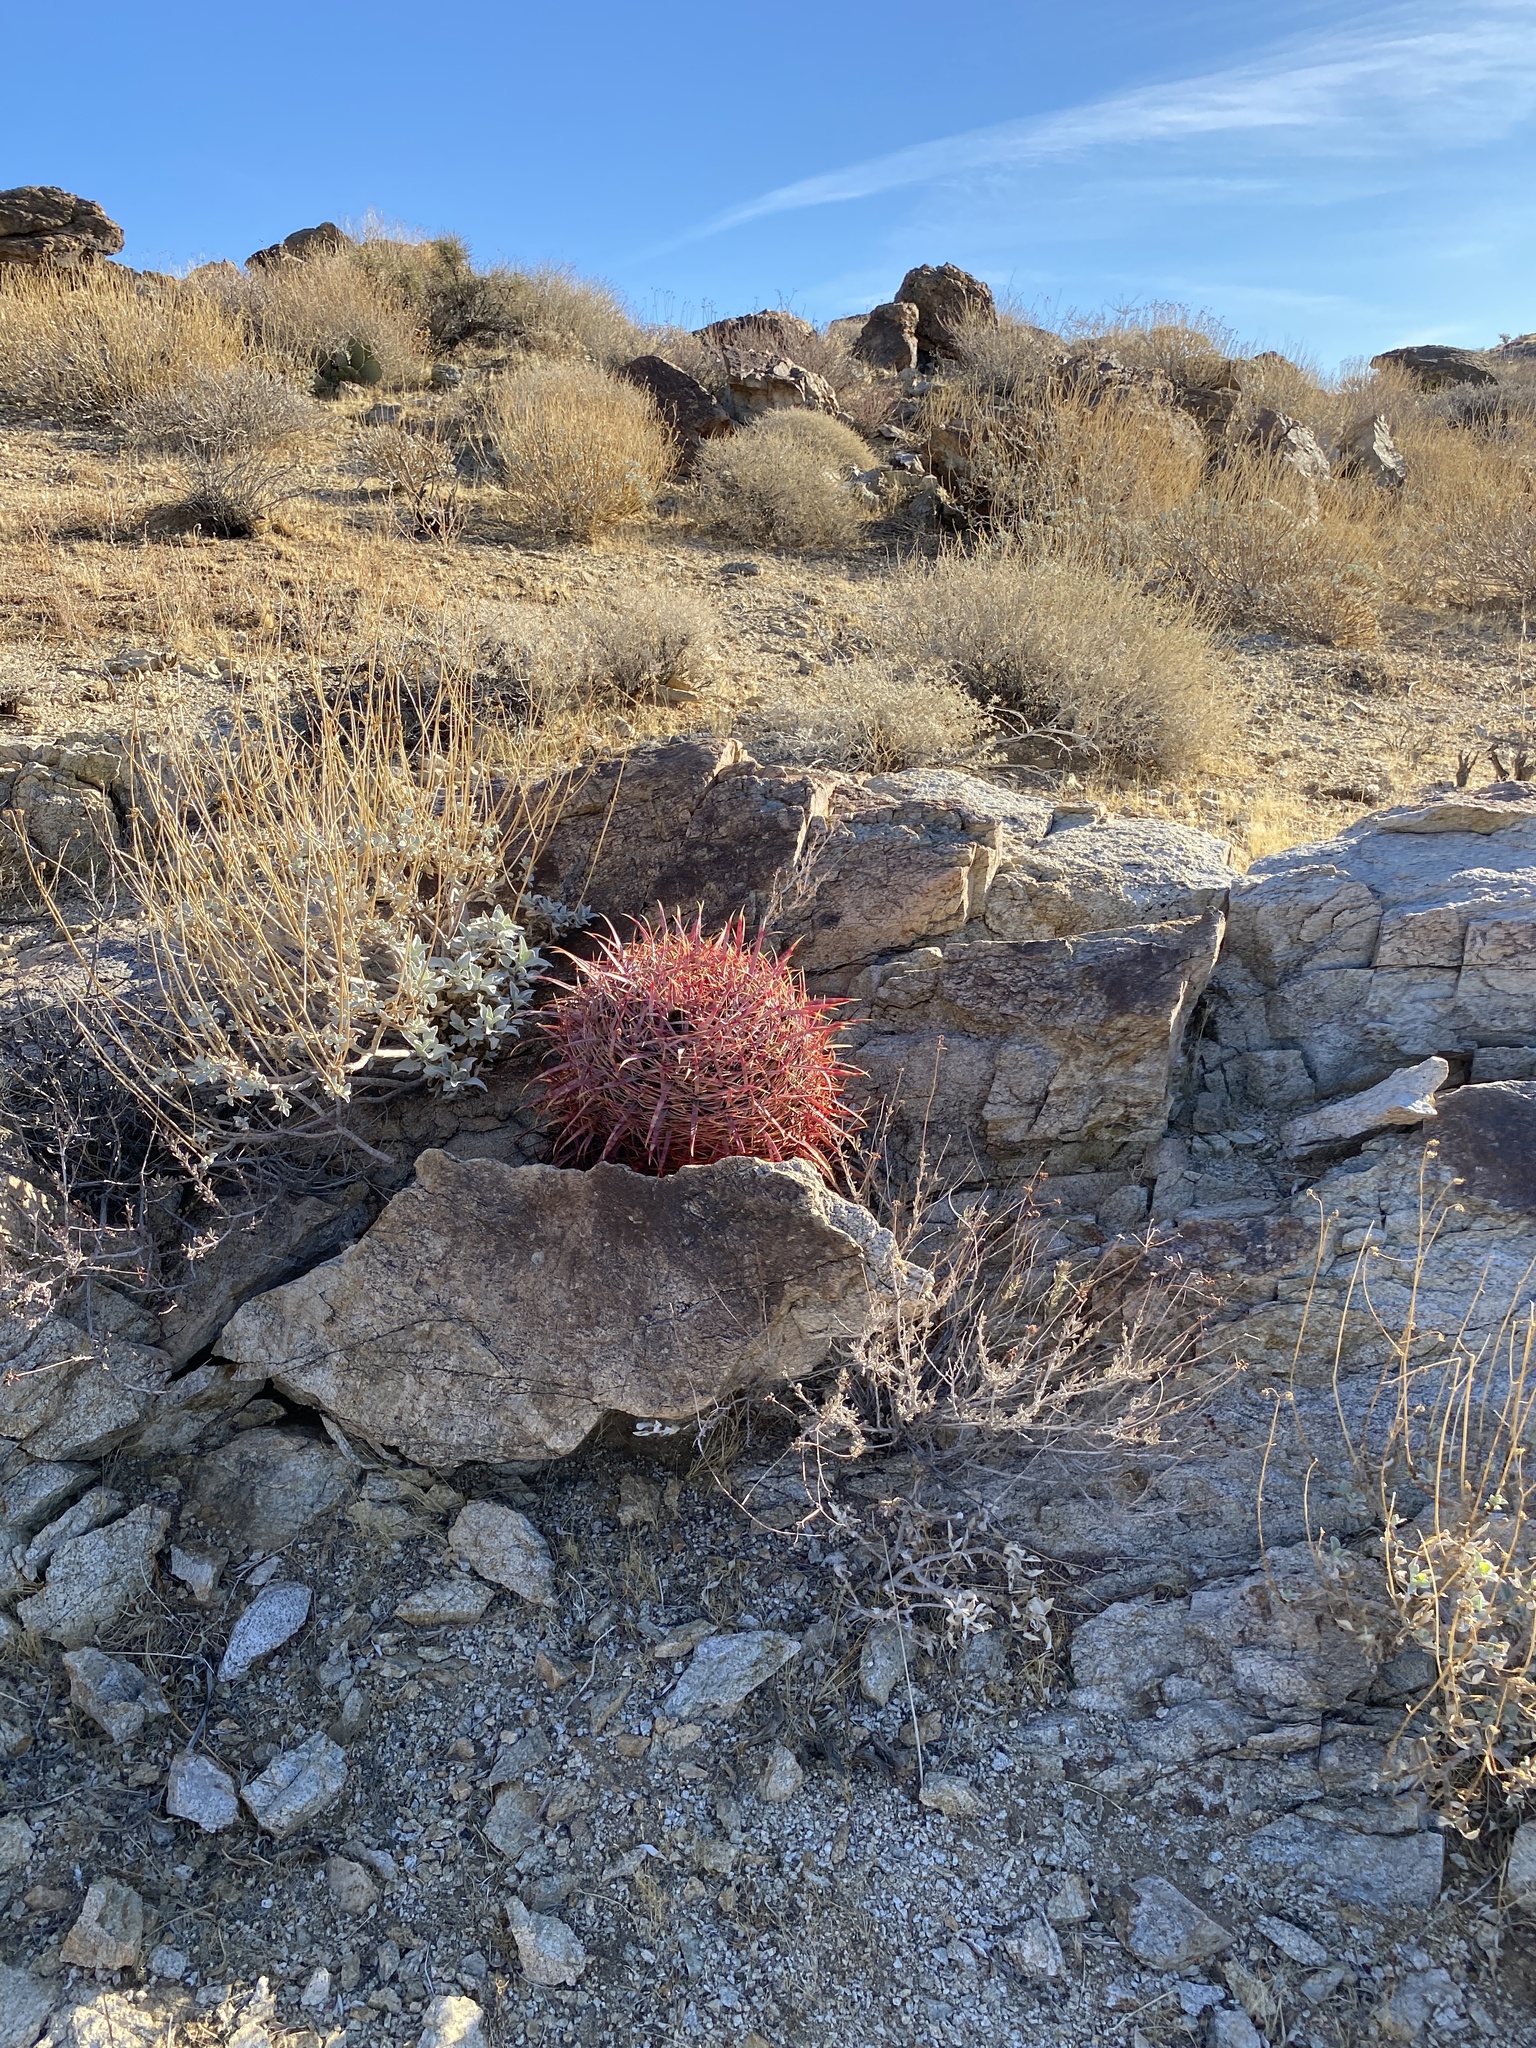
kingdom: Plantae
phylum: Tracheophyta
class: Magnoliopsida
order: Caryophyllales
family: Cactaceae
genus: Ferocactus
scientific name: Ferocactus cylindraceus
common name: California barrel cactus
